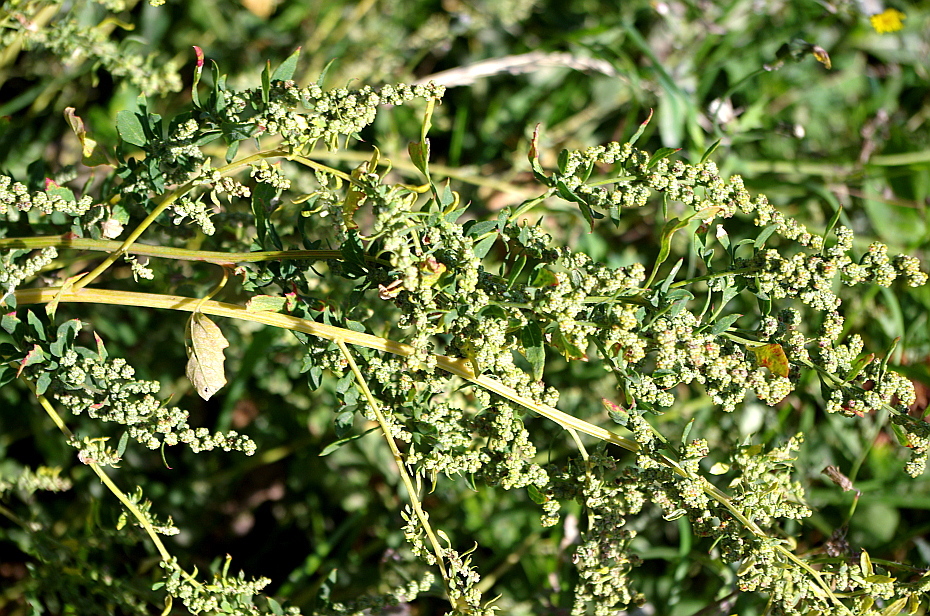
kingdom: Plantae
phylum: Tracheophyta
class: Magnoliopsida
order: Caryophyllales
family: Amaranthaceae
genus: Chenopodium
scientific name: Chenopodium album
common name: Fat-hen
